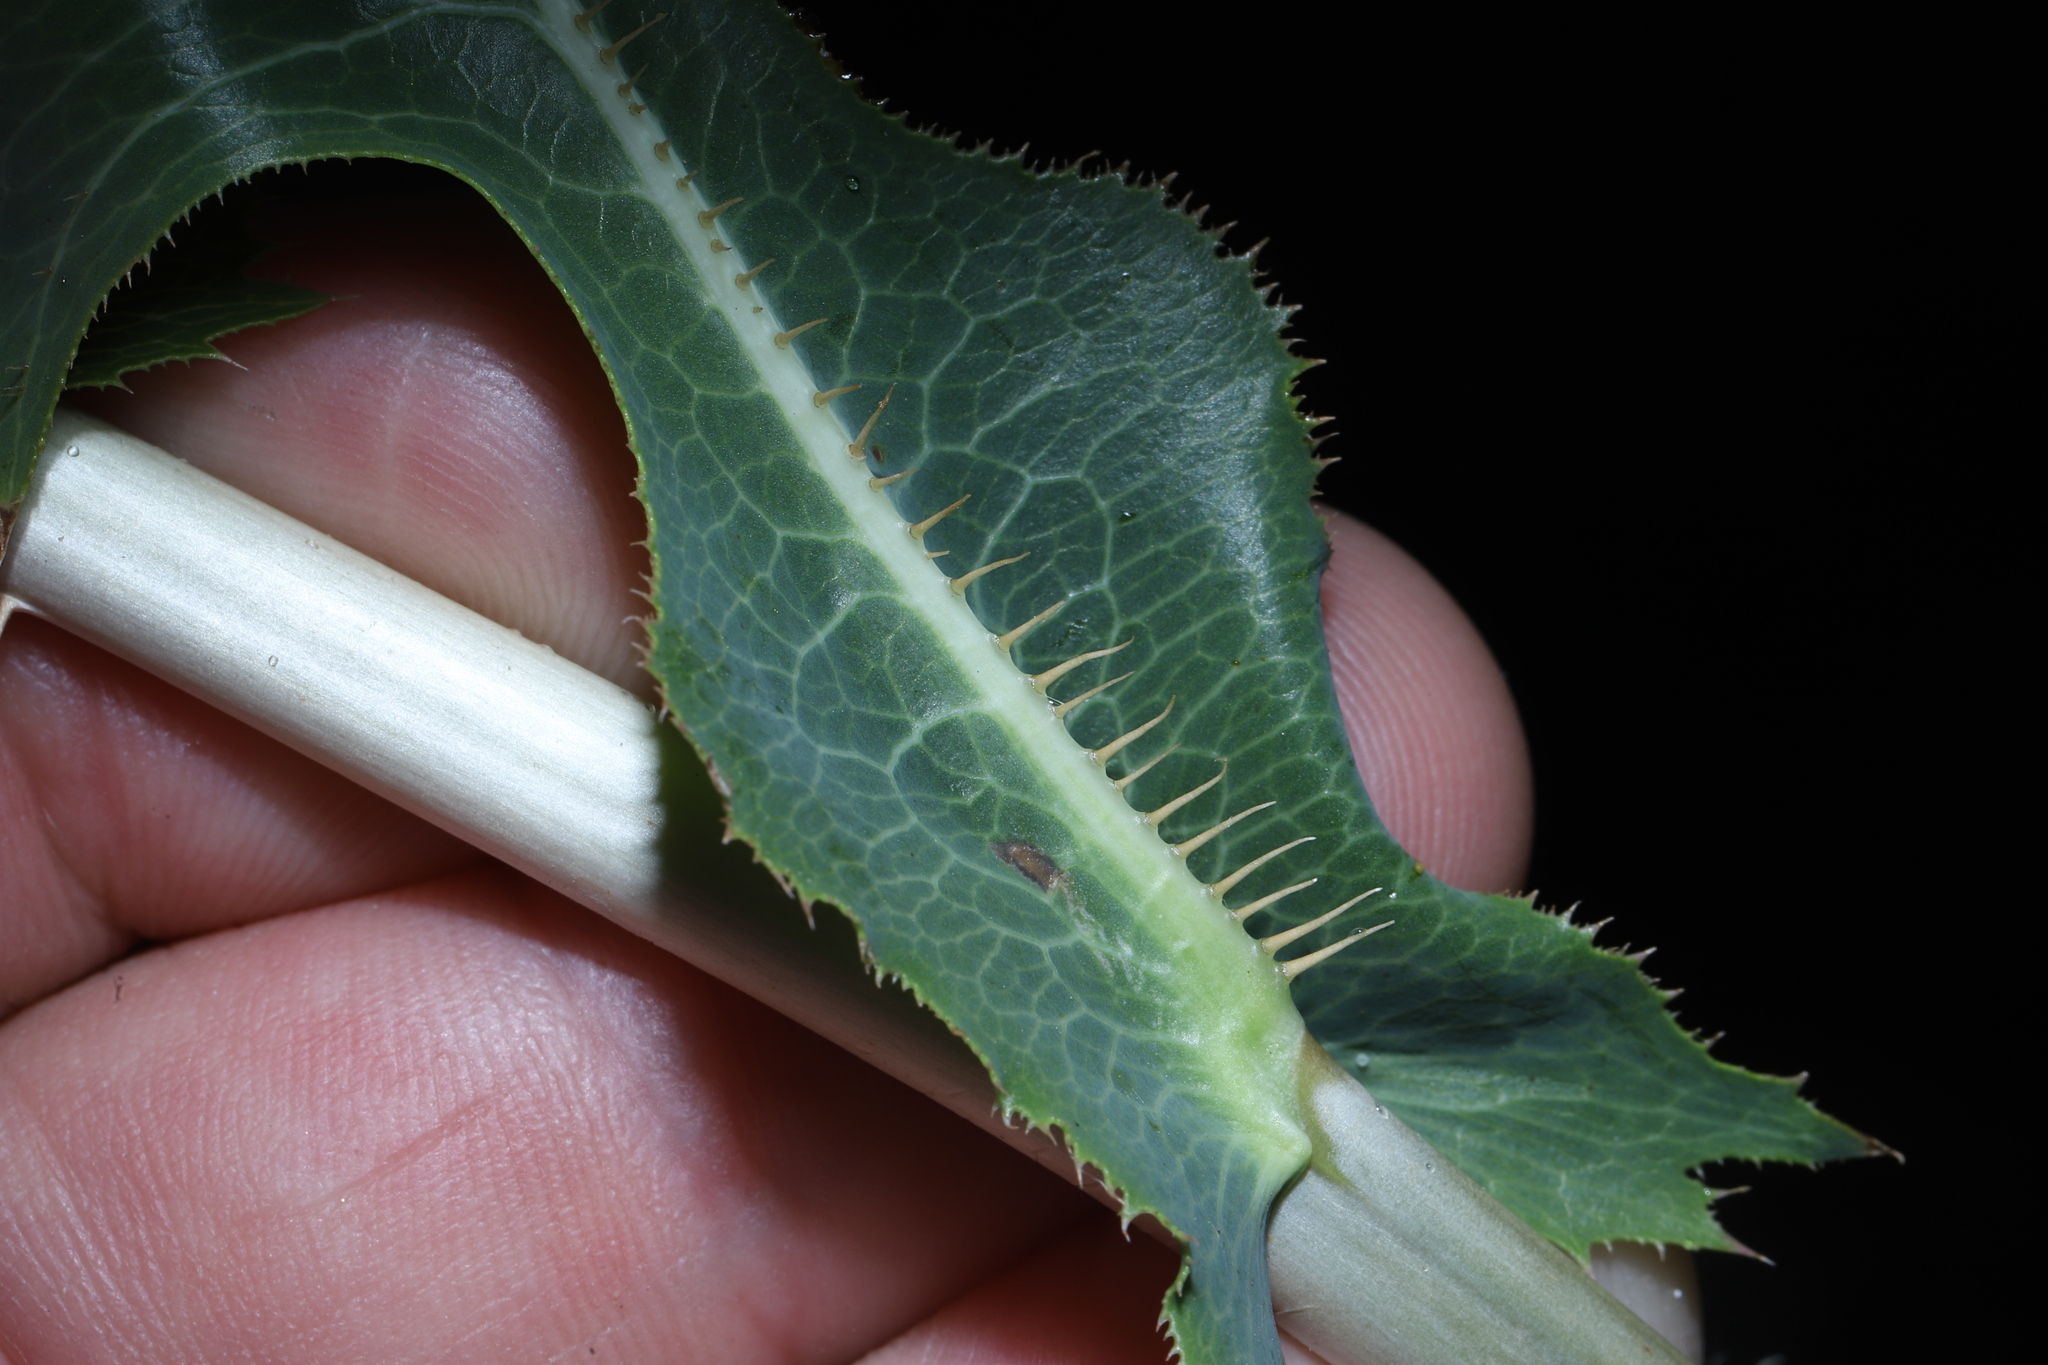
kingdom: Plantae
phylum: Tracheophyta
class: Magnoliopsida
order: Asterales
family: Asteraceae
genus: Lactuca
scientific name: Lactuca serriola
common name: Prickly lettuce
